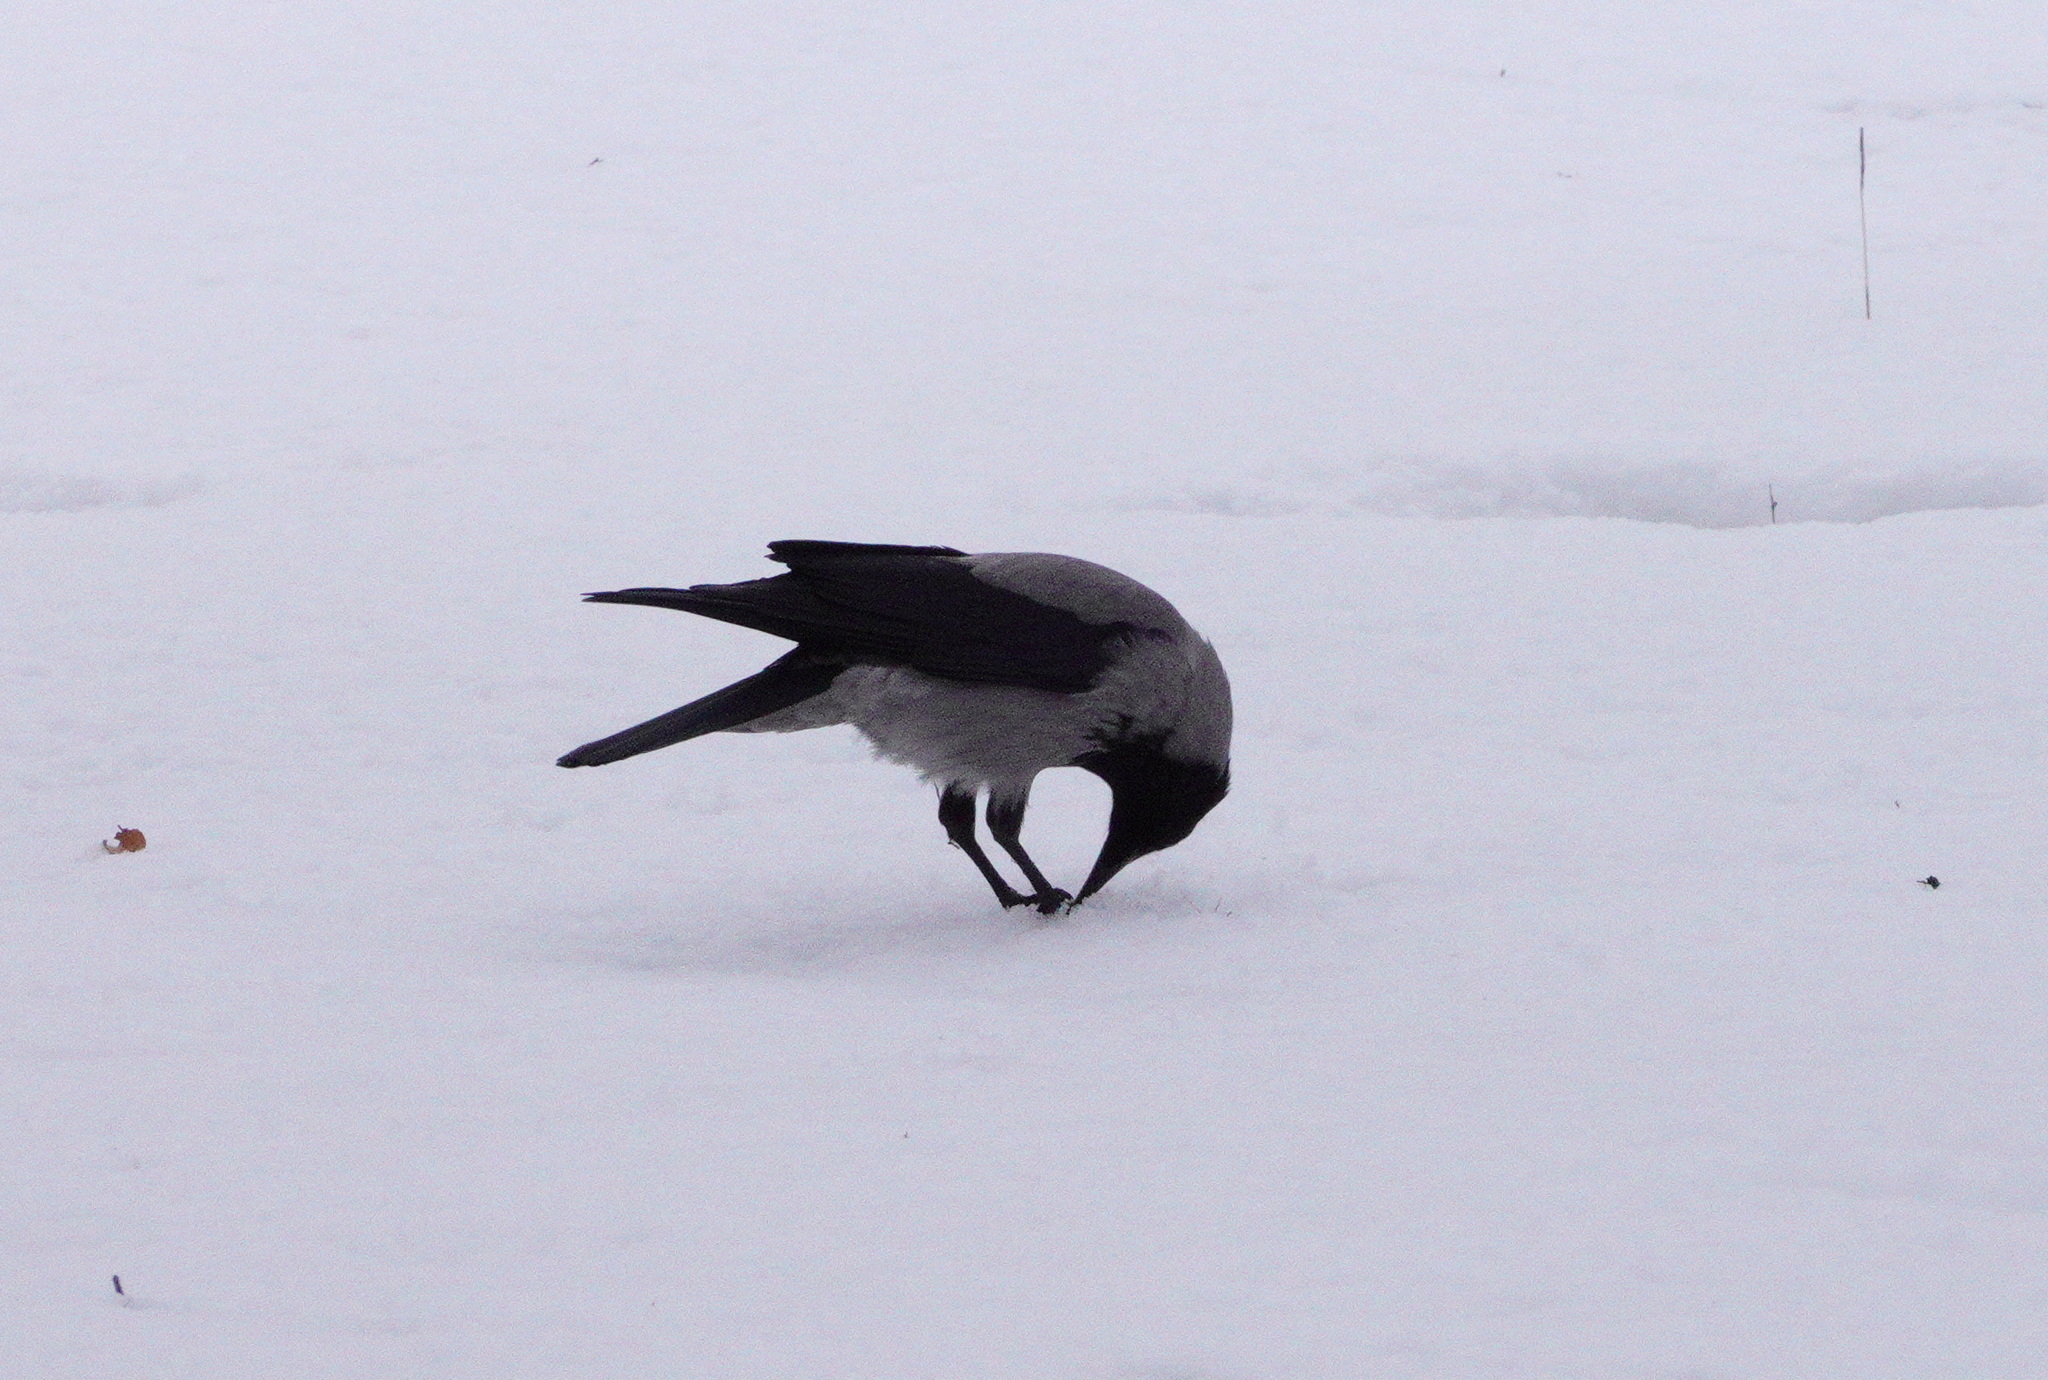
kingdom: Animalia
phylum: Chordata
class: Aves
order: Passeriformes
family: Corvidae
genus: Corvus
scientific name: Corvus cornix
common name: Hooded crow
